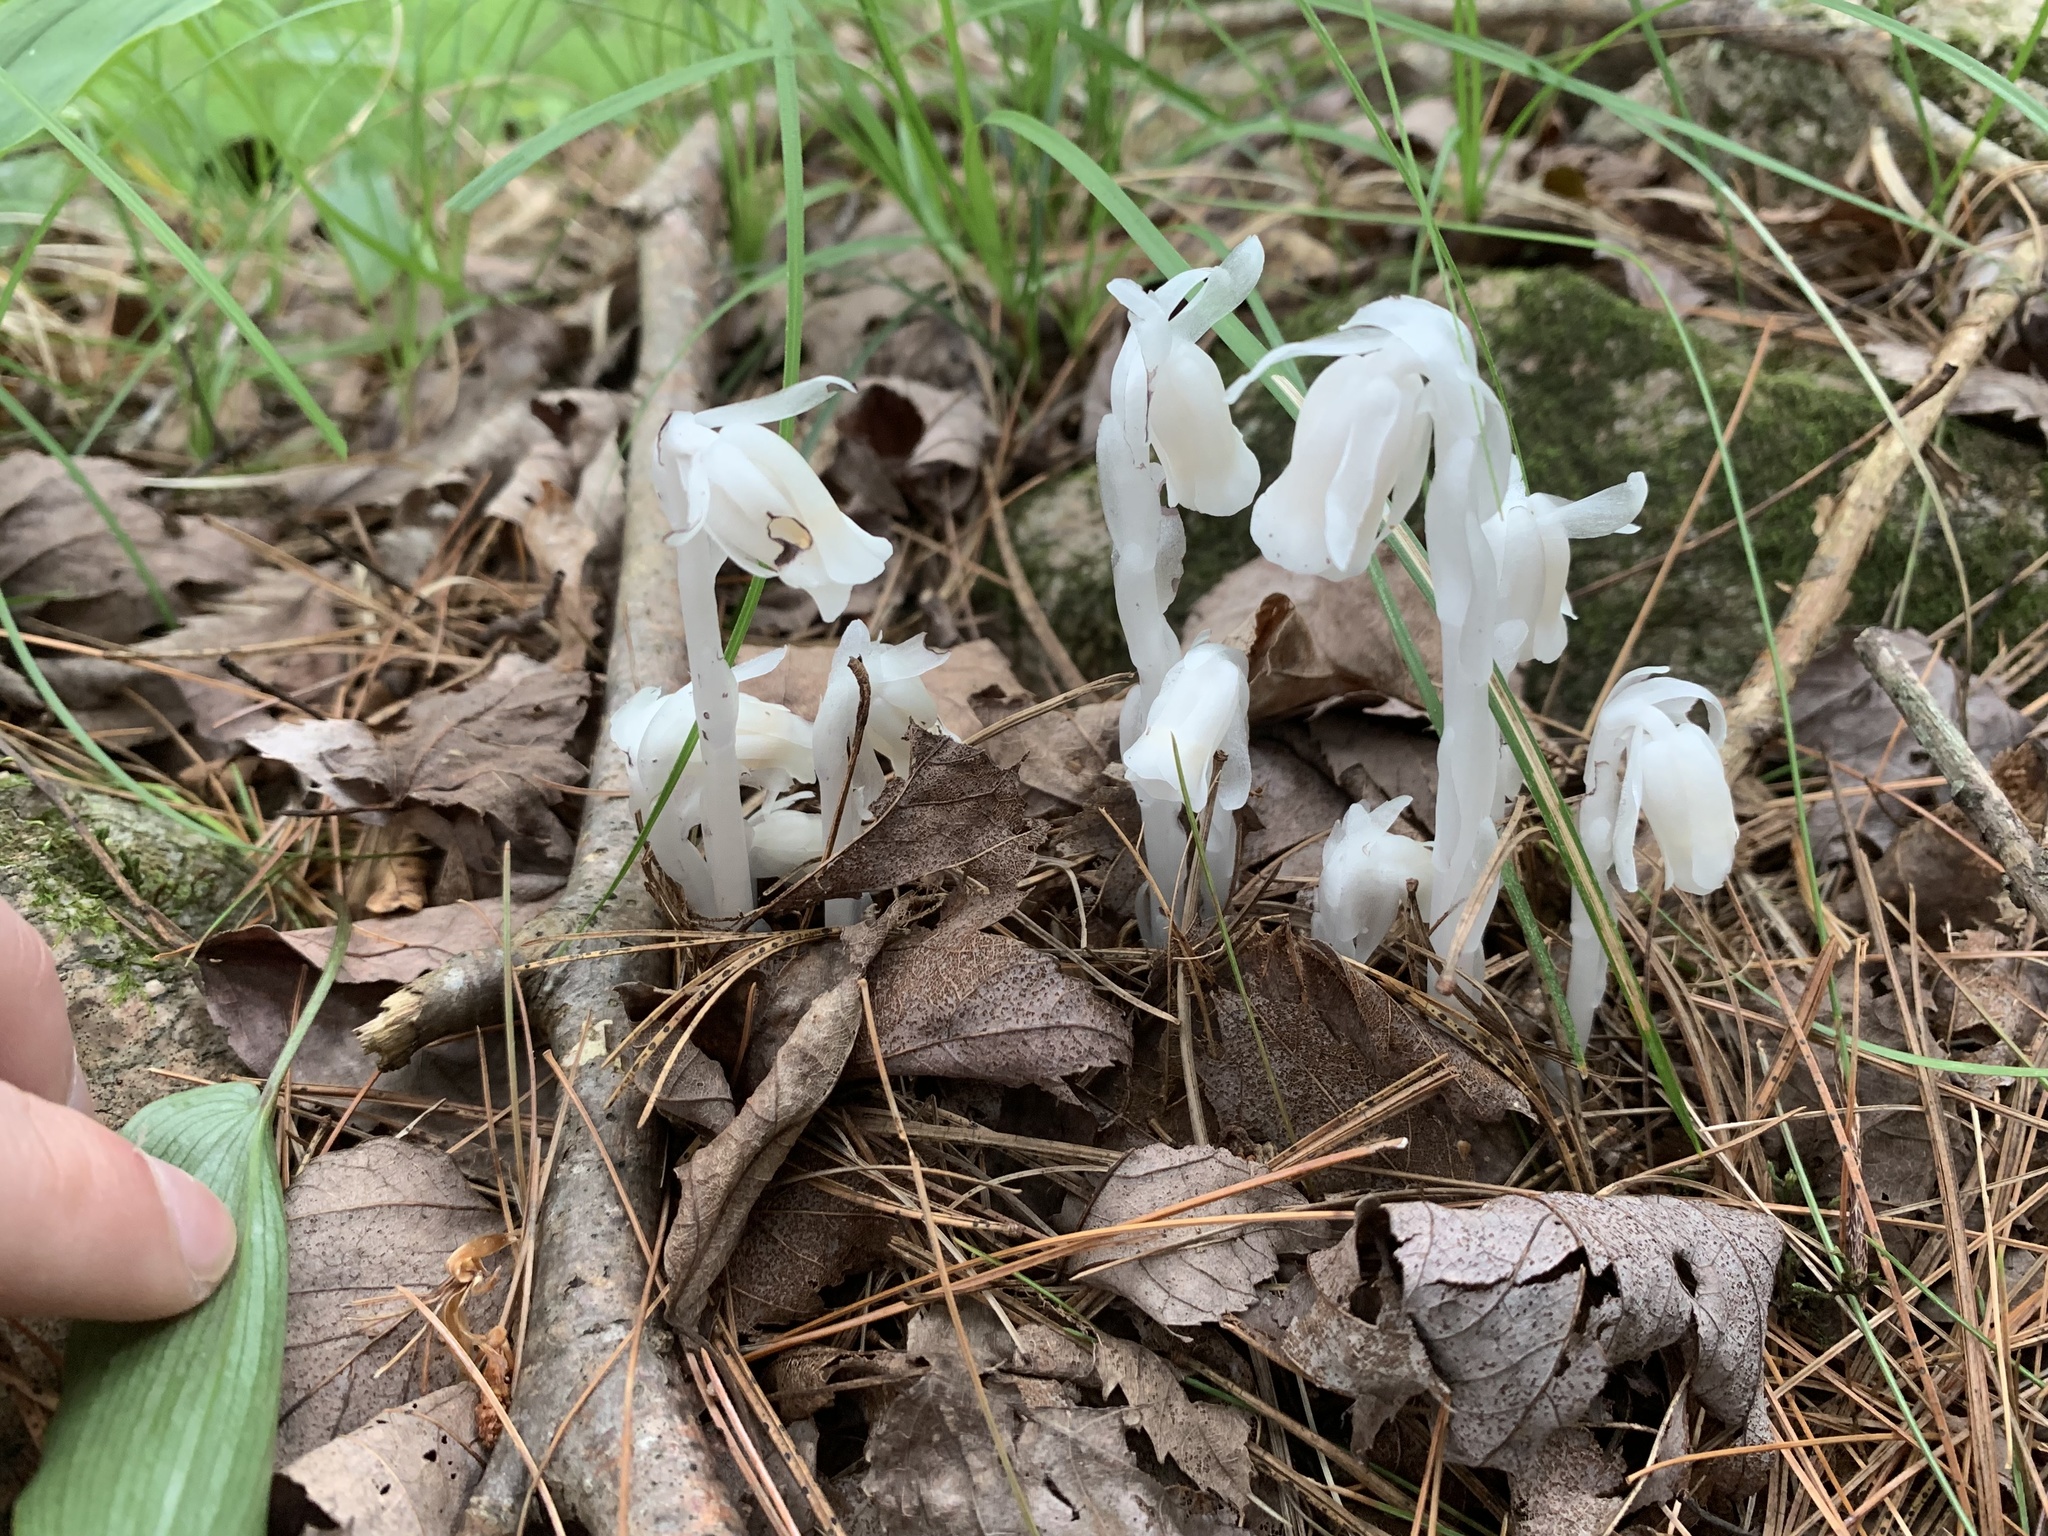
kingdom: Plantae
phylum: Tracheophyta
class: Magnoliopsida
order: Ericales
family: Ericaceae
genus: Monotropa
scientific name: Monotropa uniflora
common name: Convulsion root
